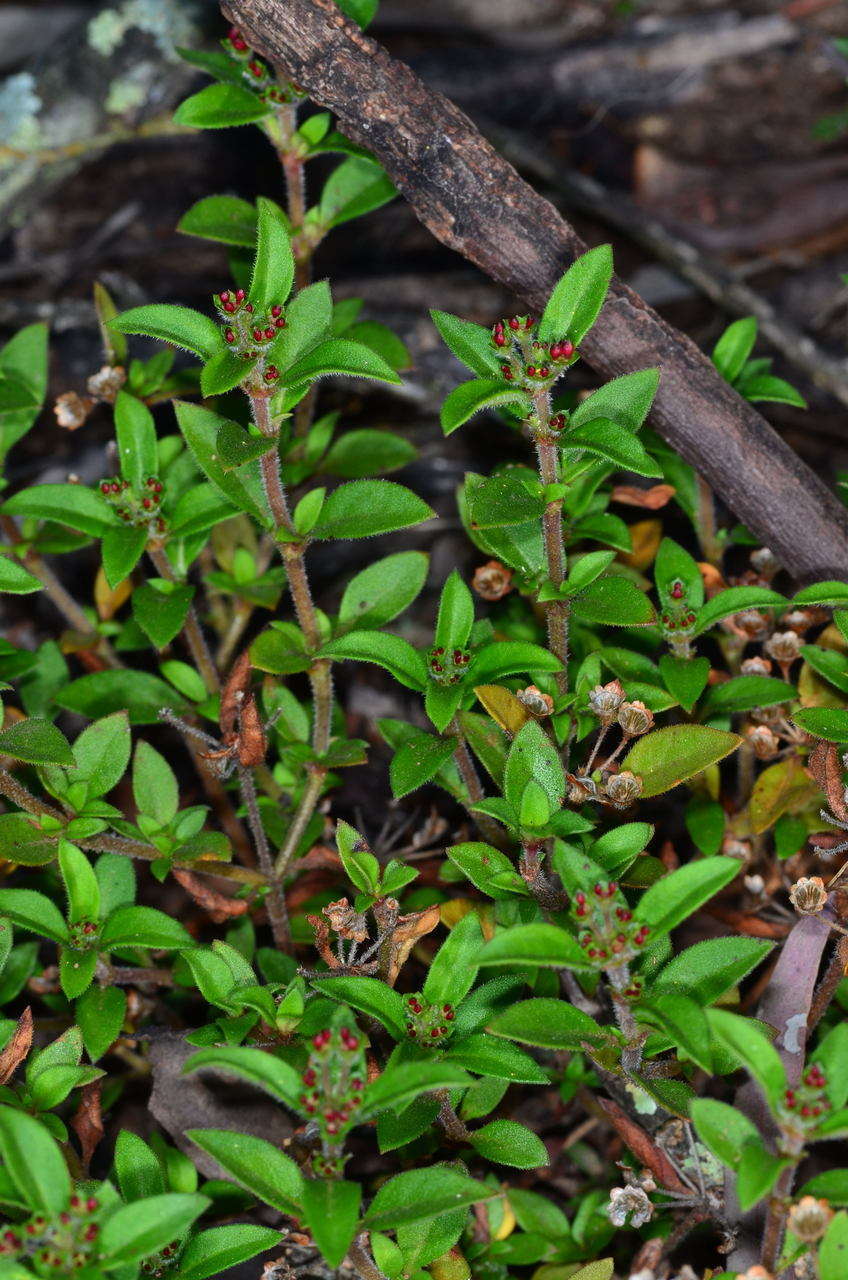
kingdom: Plantae
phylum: Tracheophyta
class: Magnoliopsida
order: Gentianales
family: Rubiaceae
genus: Pomax
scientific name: Pomax umbellata
